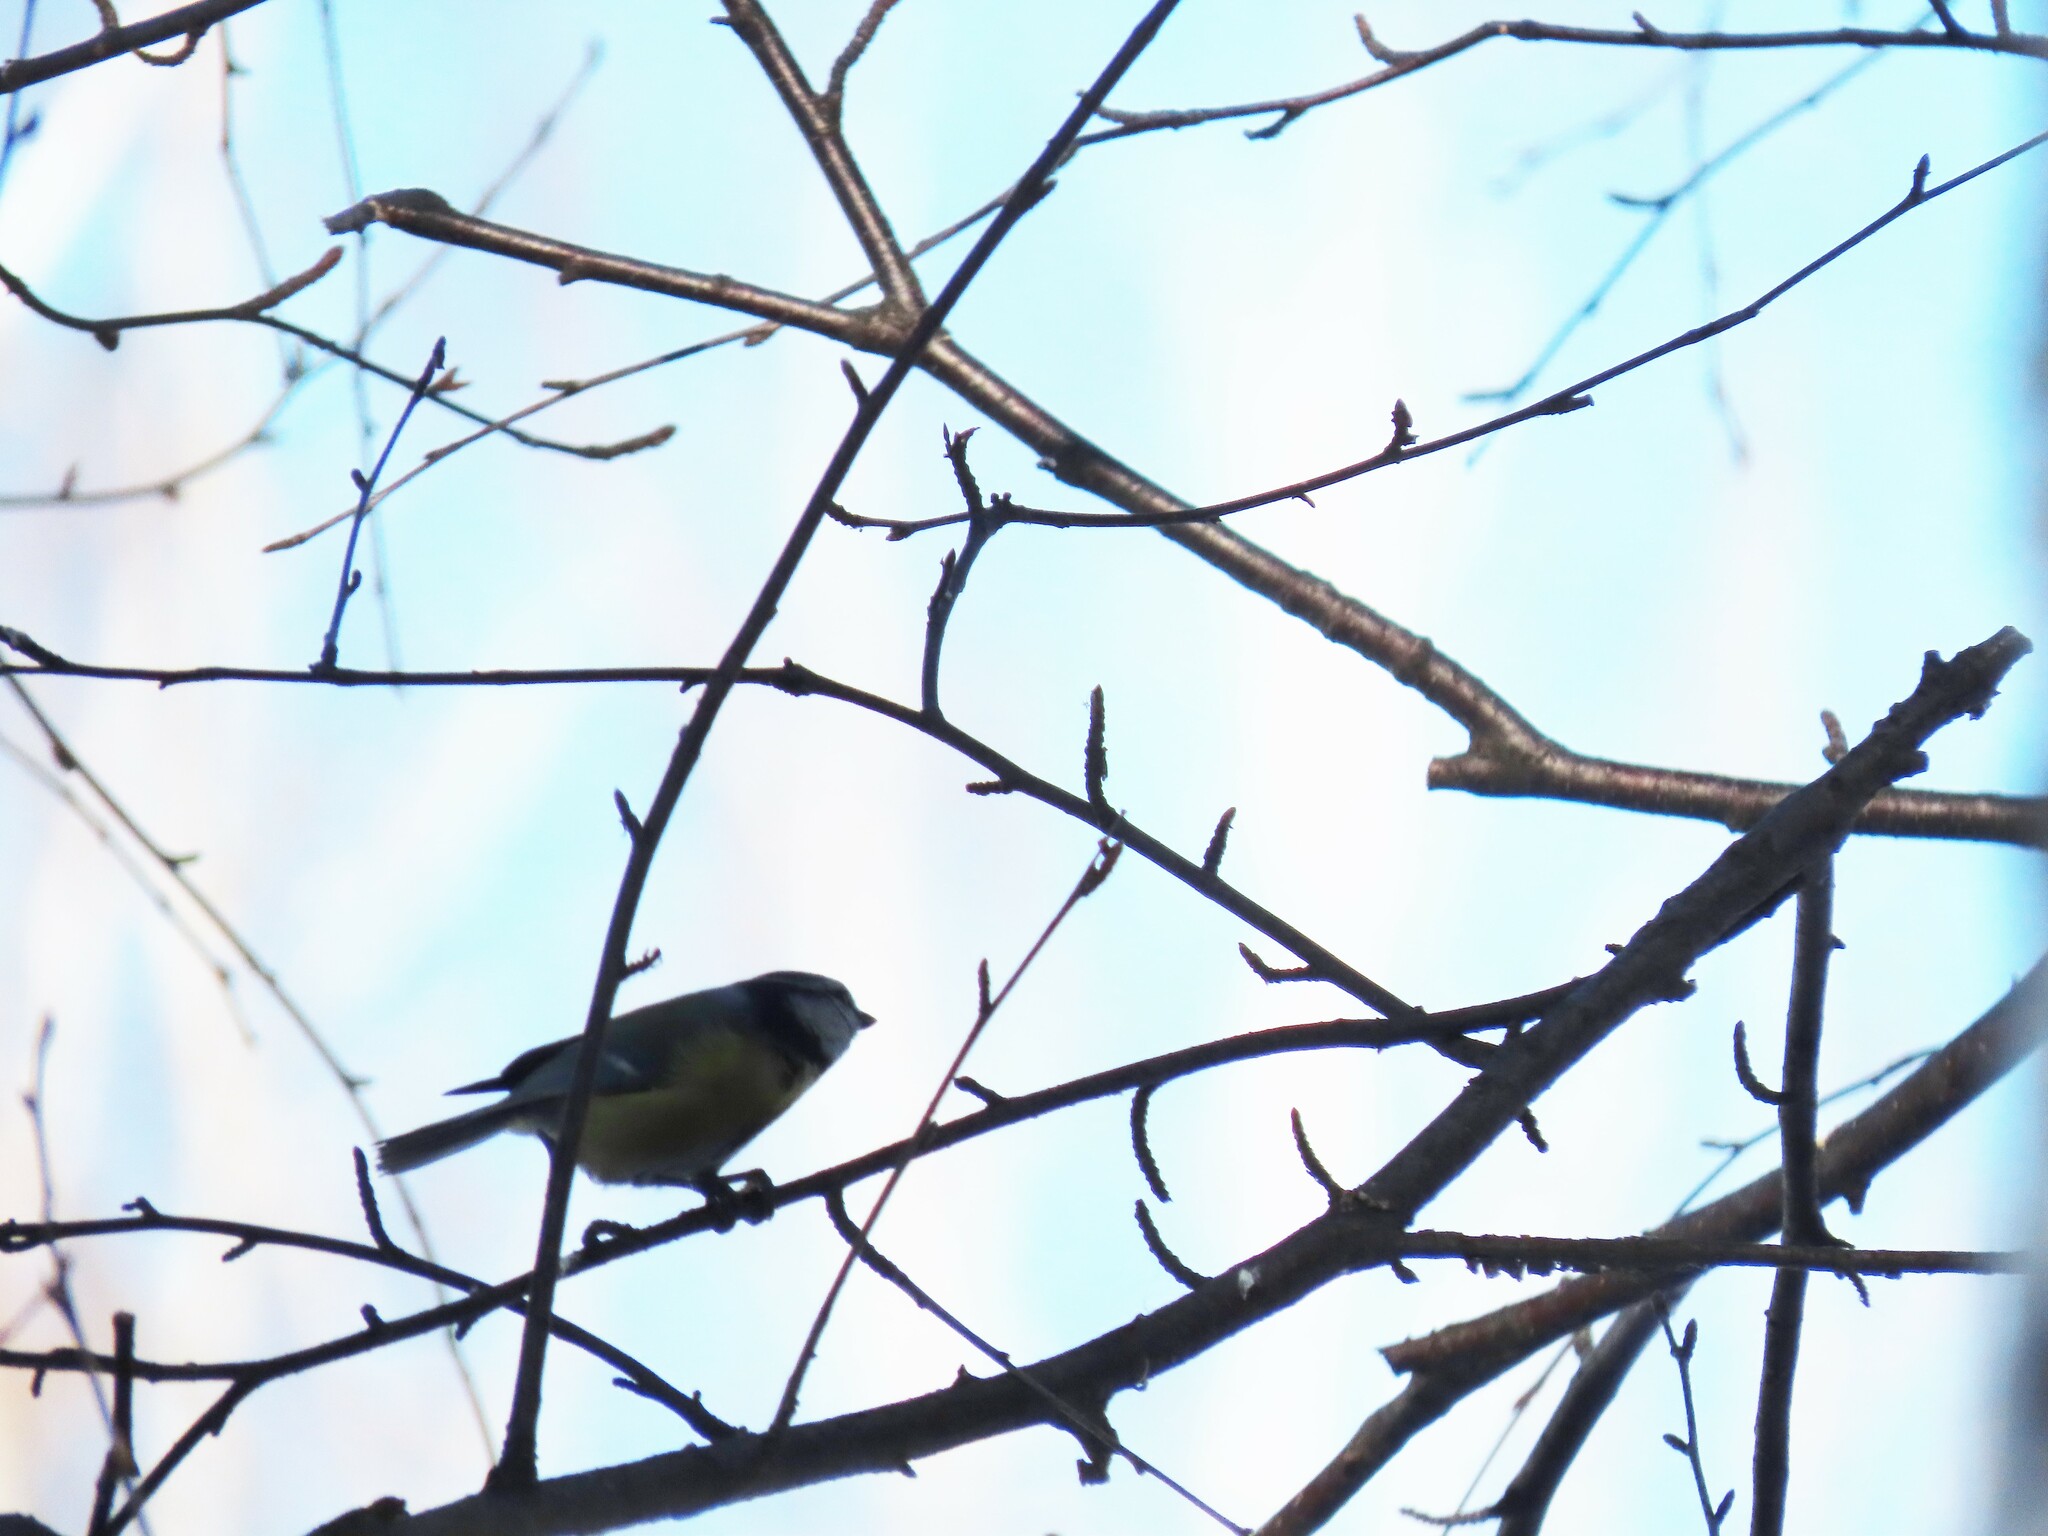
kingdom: Animalia
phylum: Chordata
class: Aves
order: Passeriformes
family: Paridae
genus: Cyanistes
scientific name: Cyanistes caeruleus
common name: Eurasian blue tit
